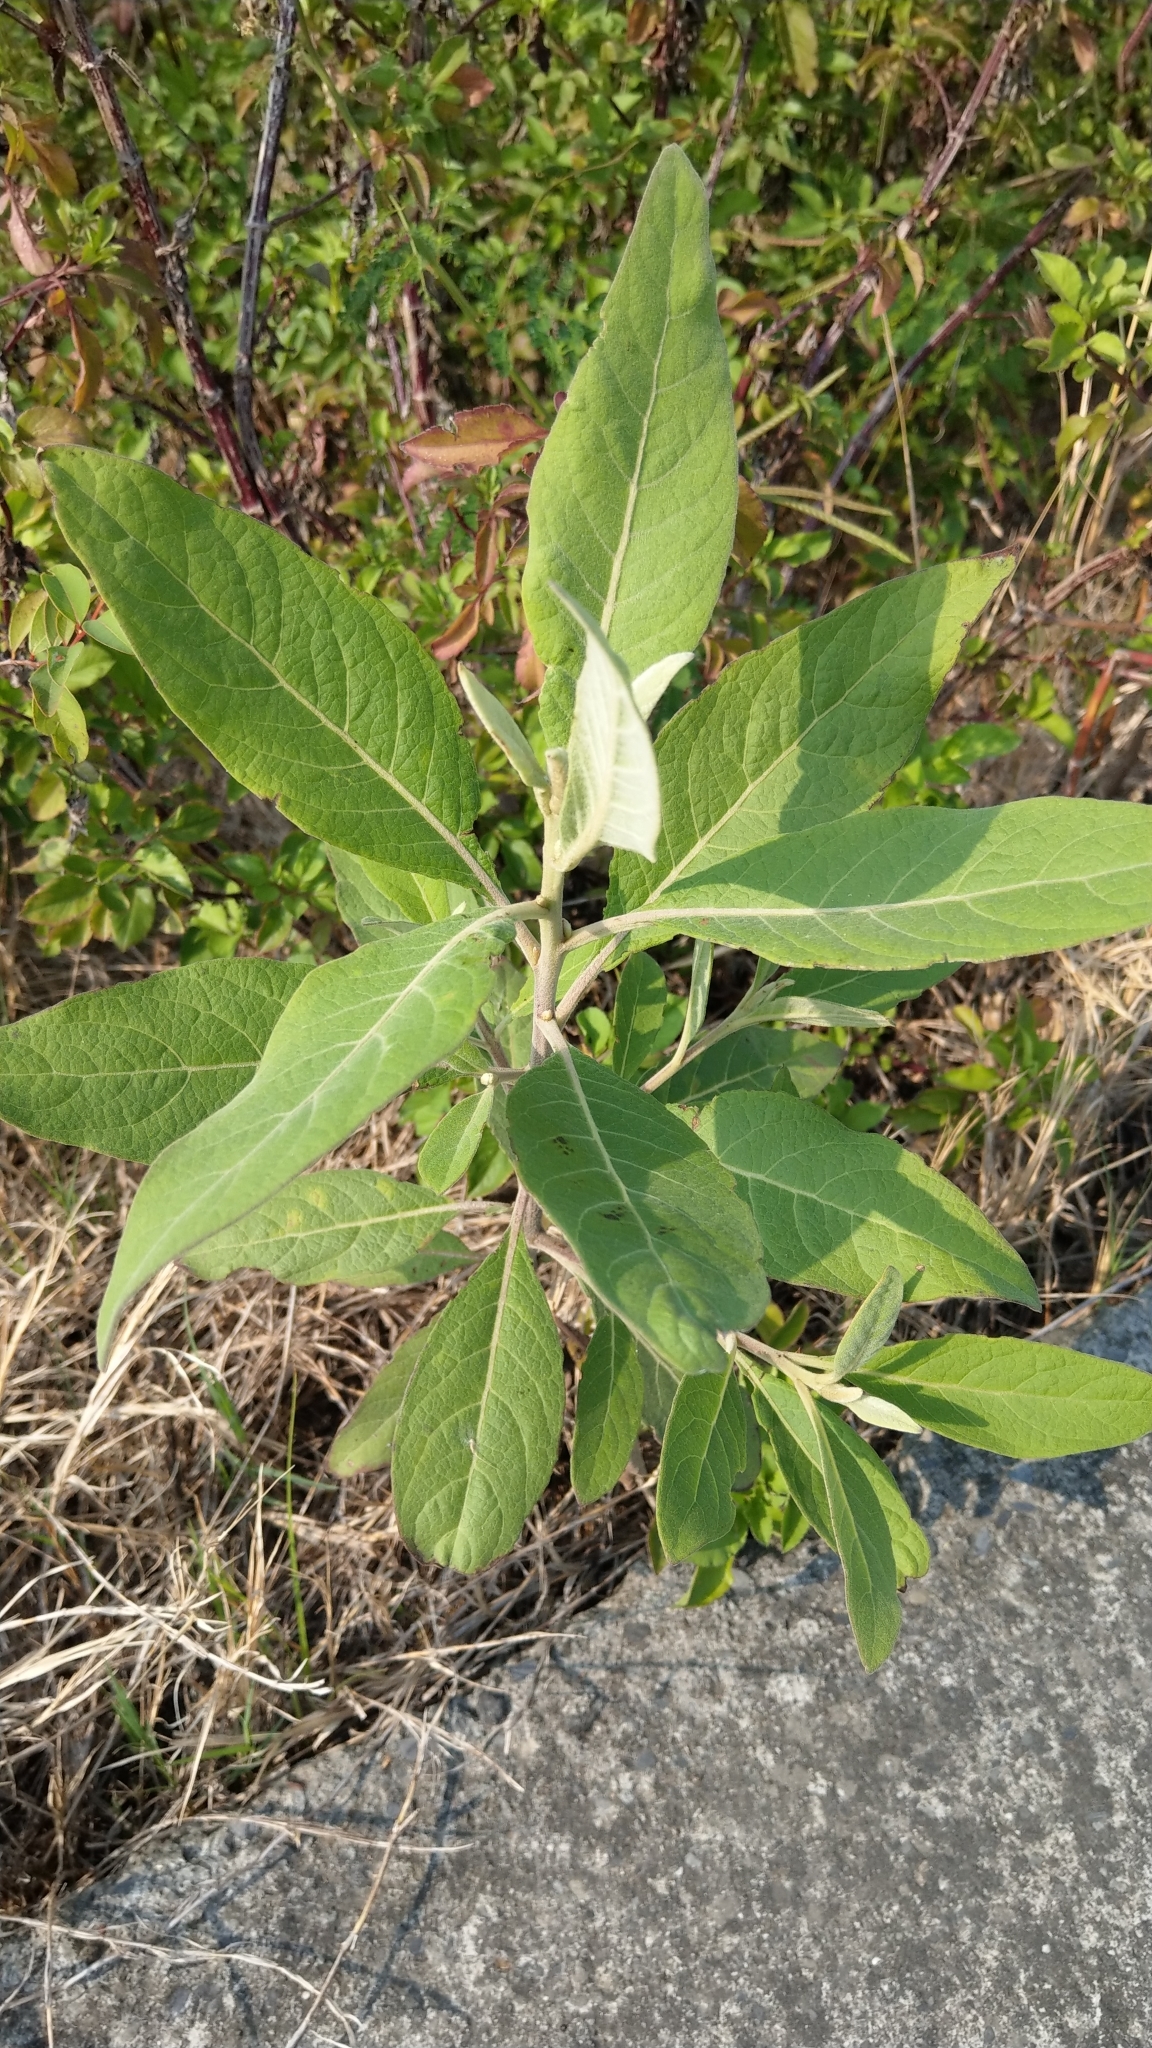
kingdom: Plantae
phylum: Tracheophyta
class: Magnoliopsida
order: Asterales
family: Asteraceae
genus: Pluchea
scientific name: Pluchea carolinensis
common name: Marsh fleabane
